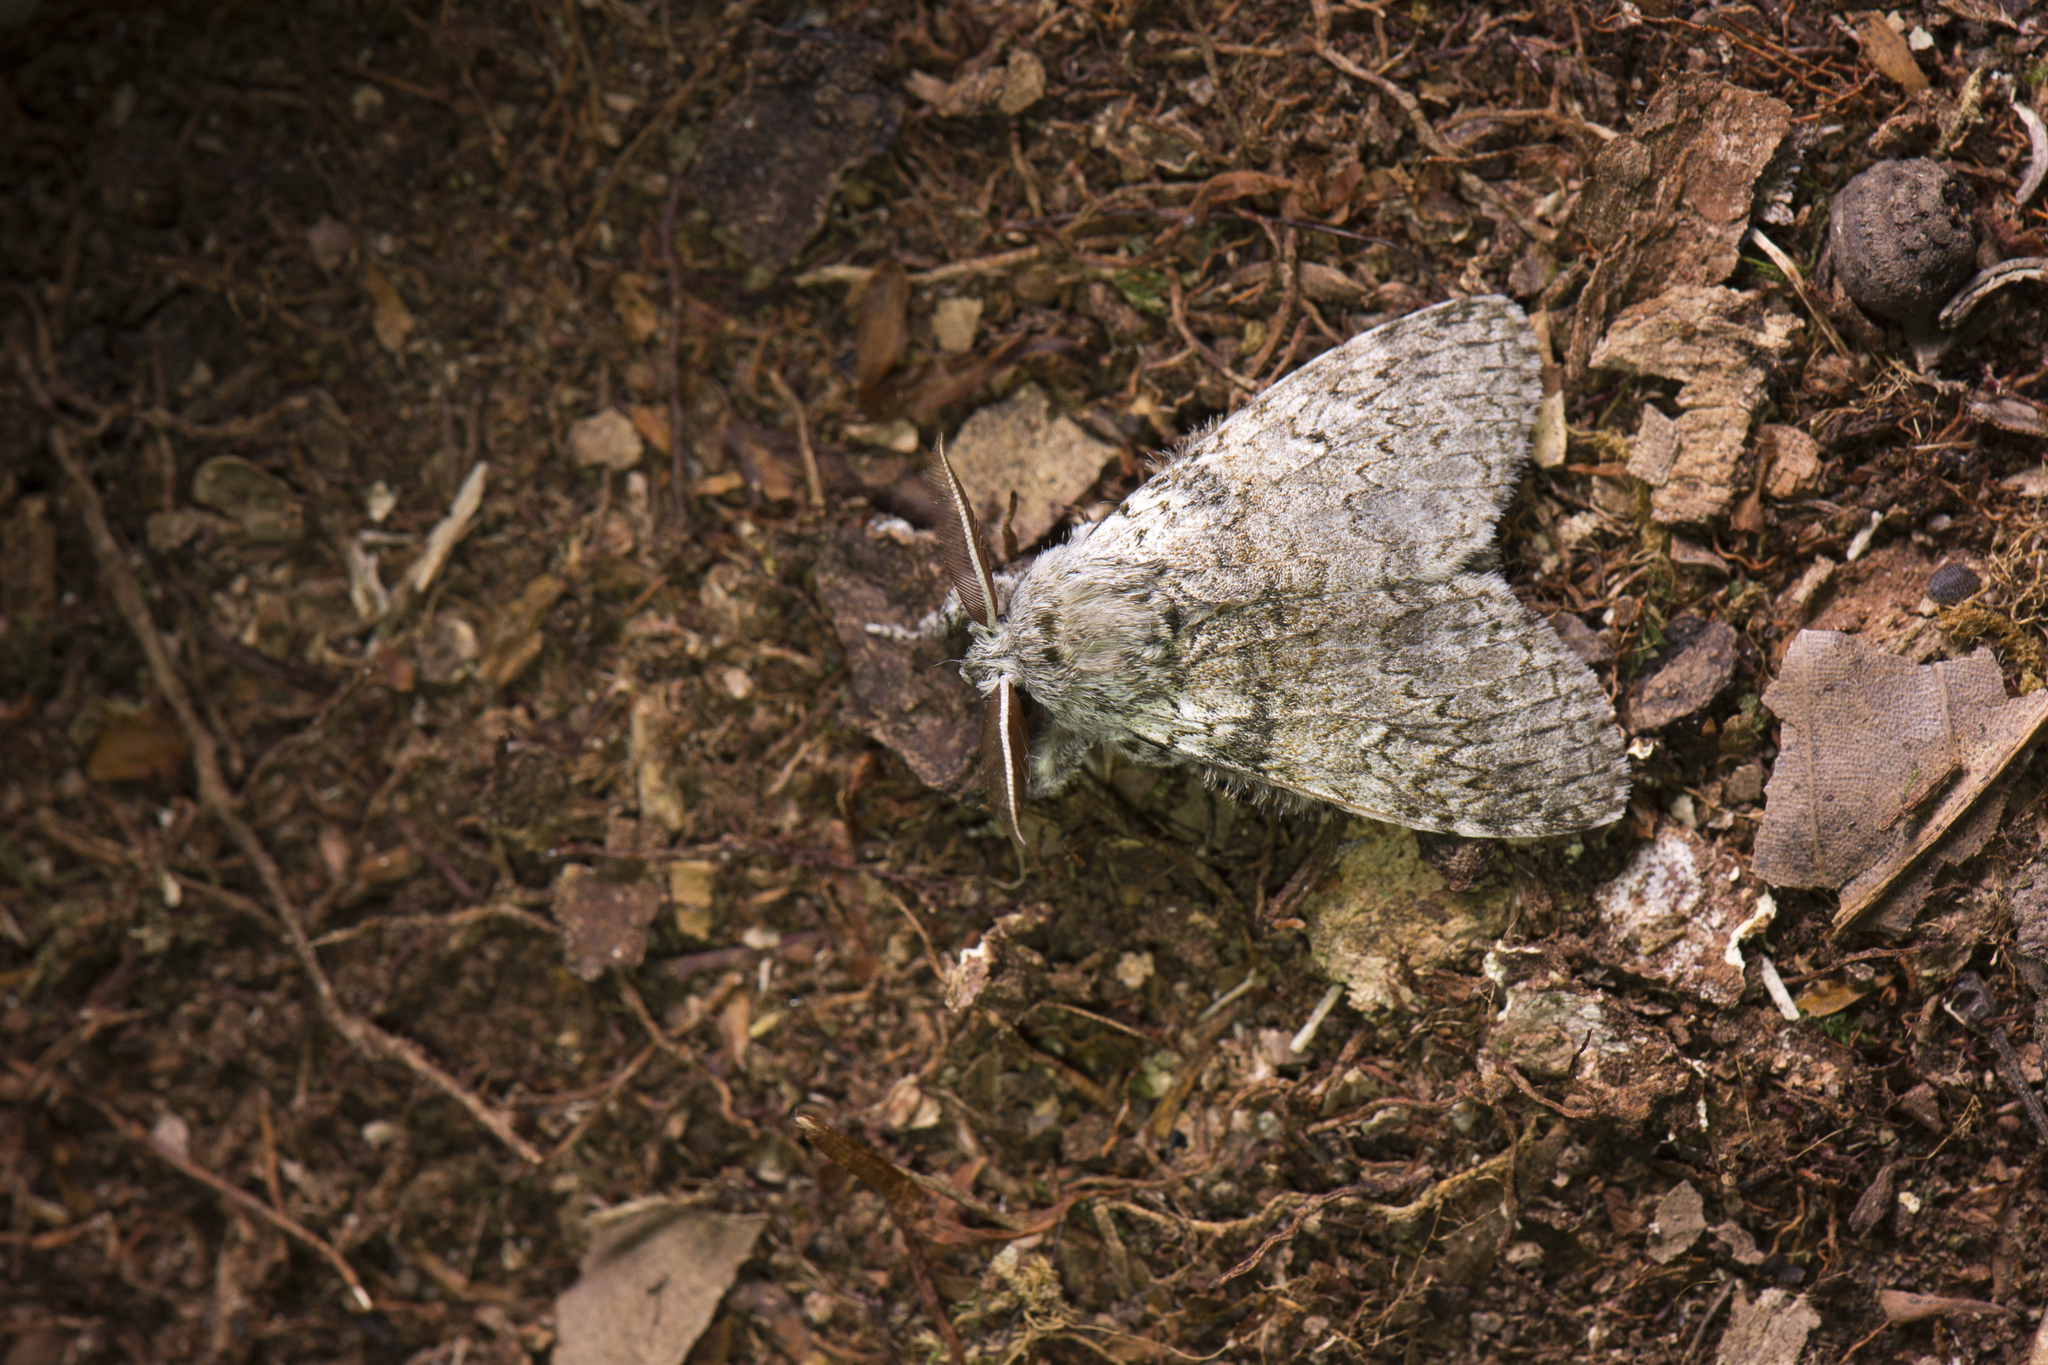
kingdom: Animalia
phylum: Arthropoda
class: Insecta
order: Lepidoptera
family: Erebidae
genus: Calliteara
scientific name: Calliteara arizana
